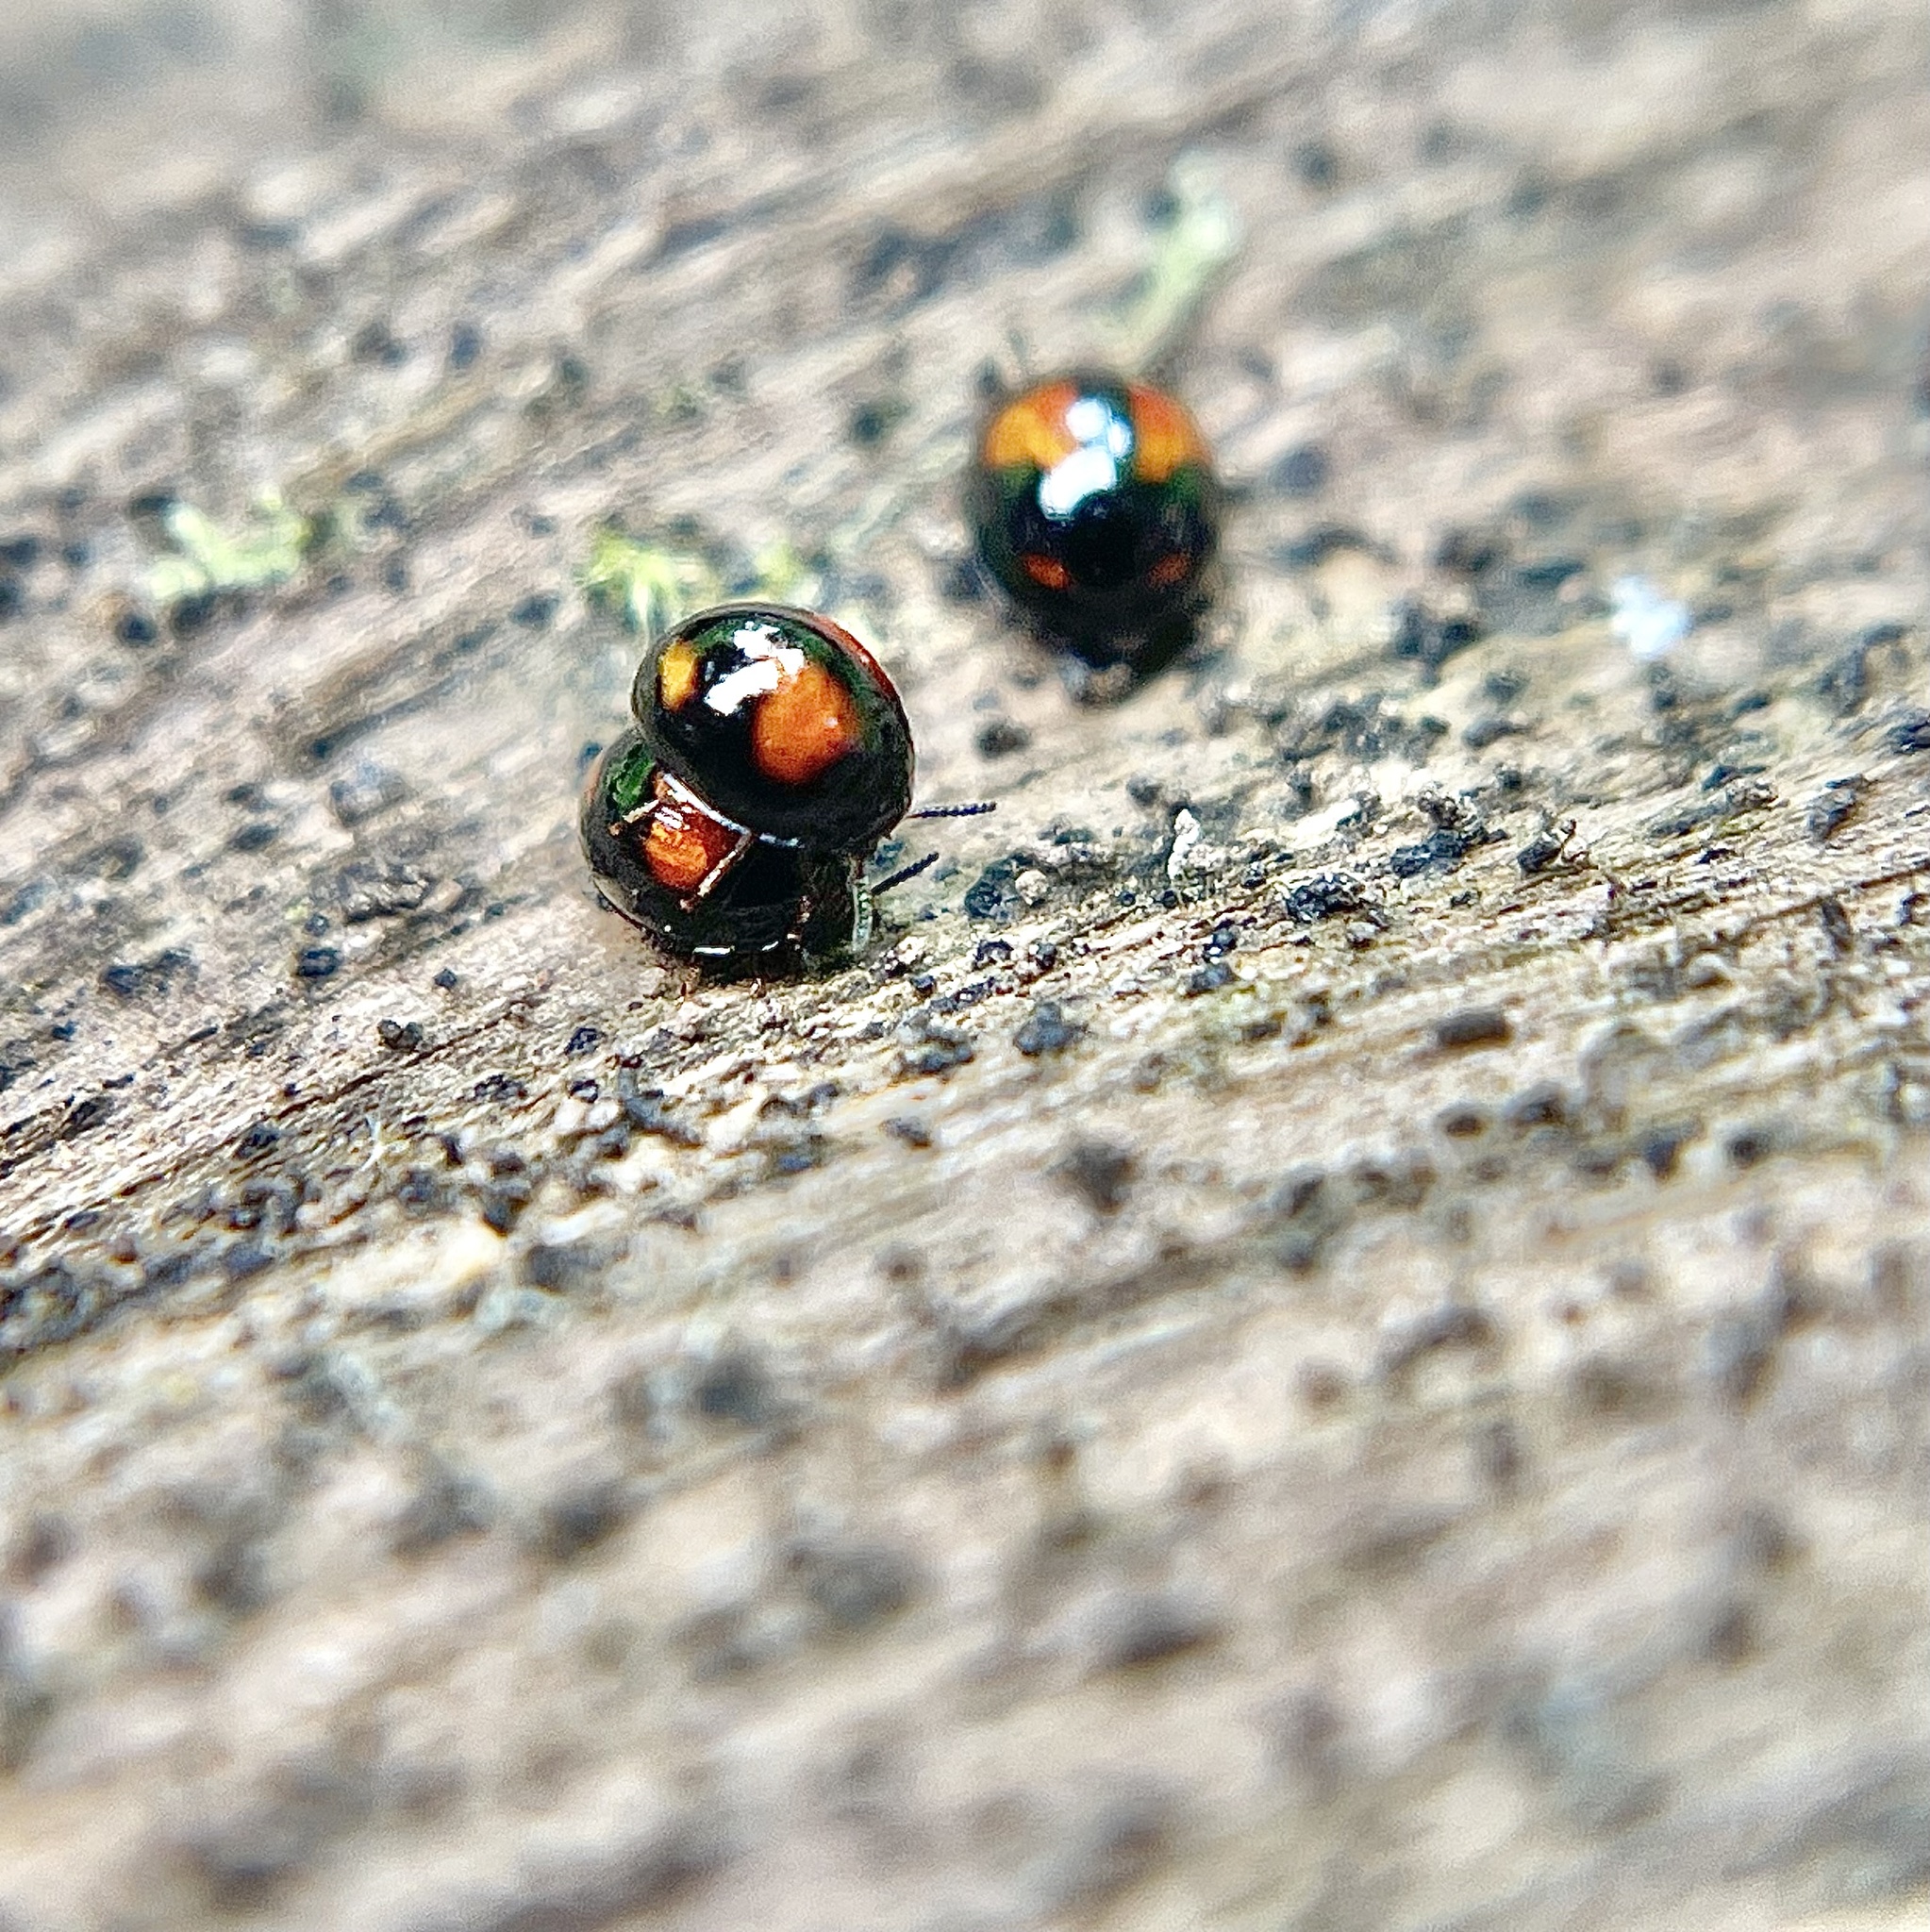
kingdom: Animalia
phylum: Arthropoda
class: Insecta
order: Coleoptera
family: Tenebrionidae
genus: Stethotrypes
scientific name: Stethotrypes
